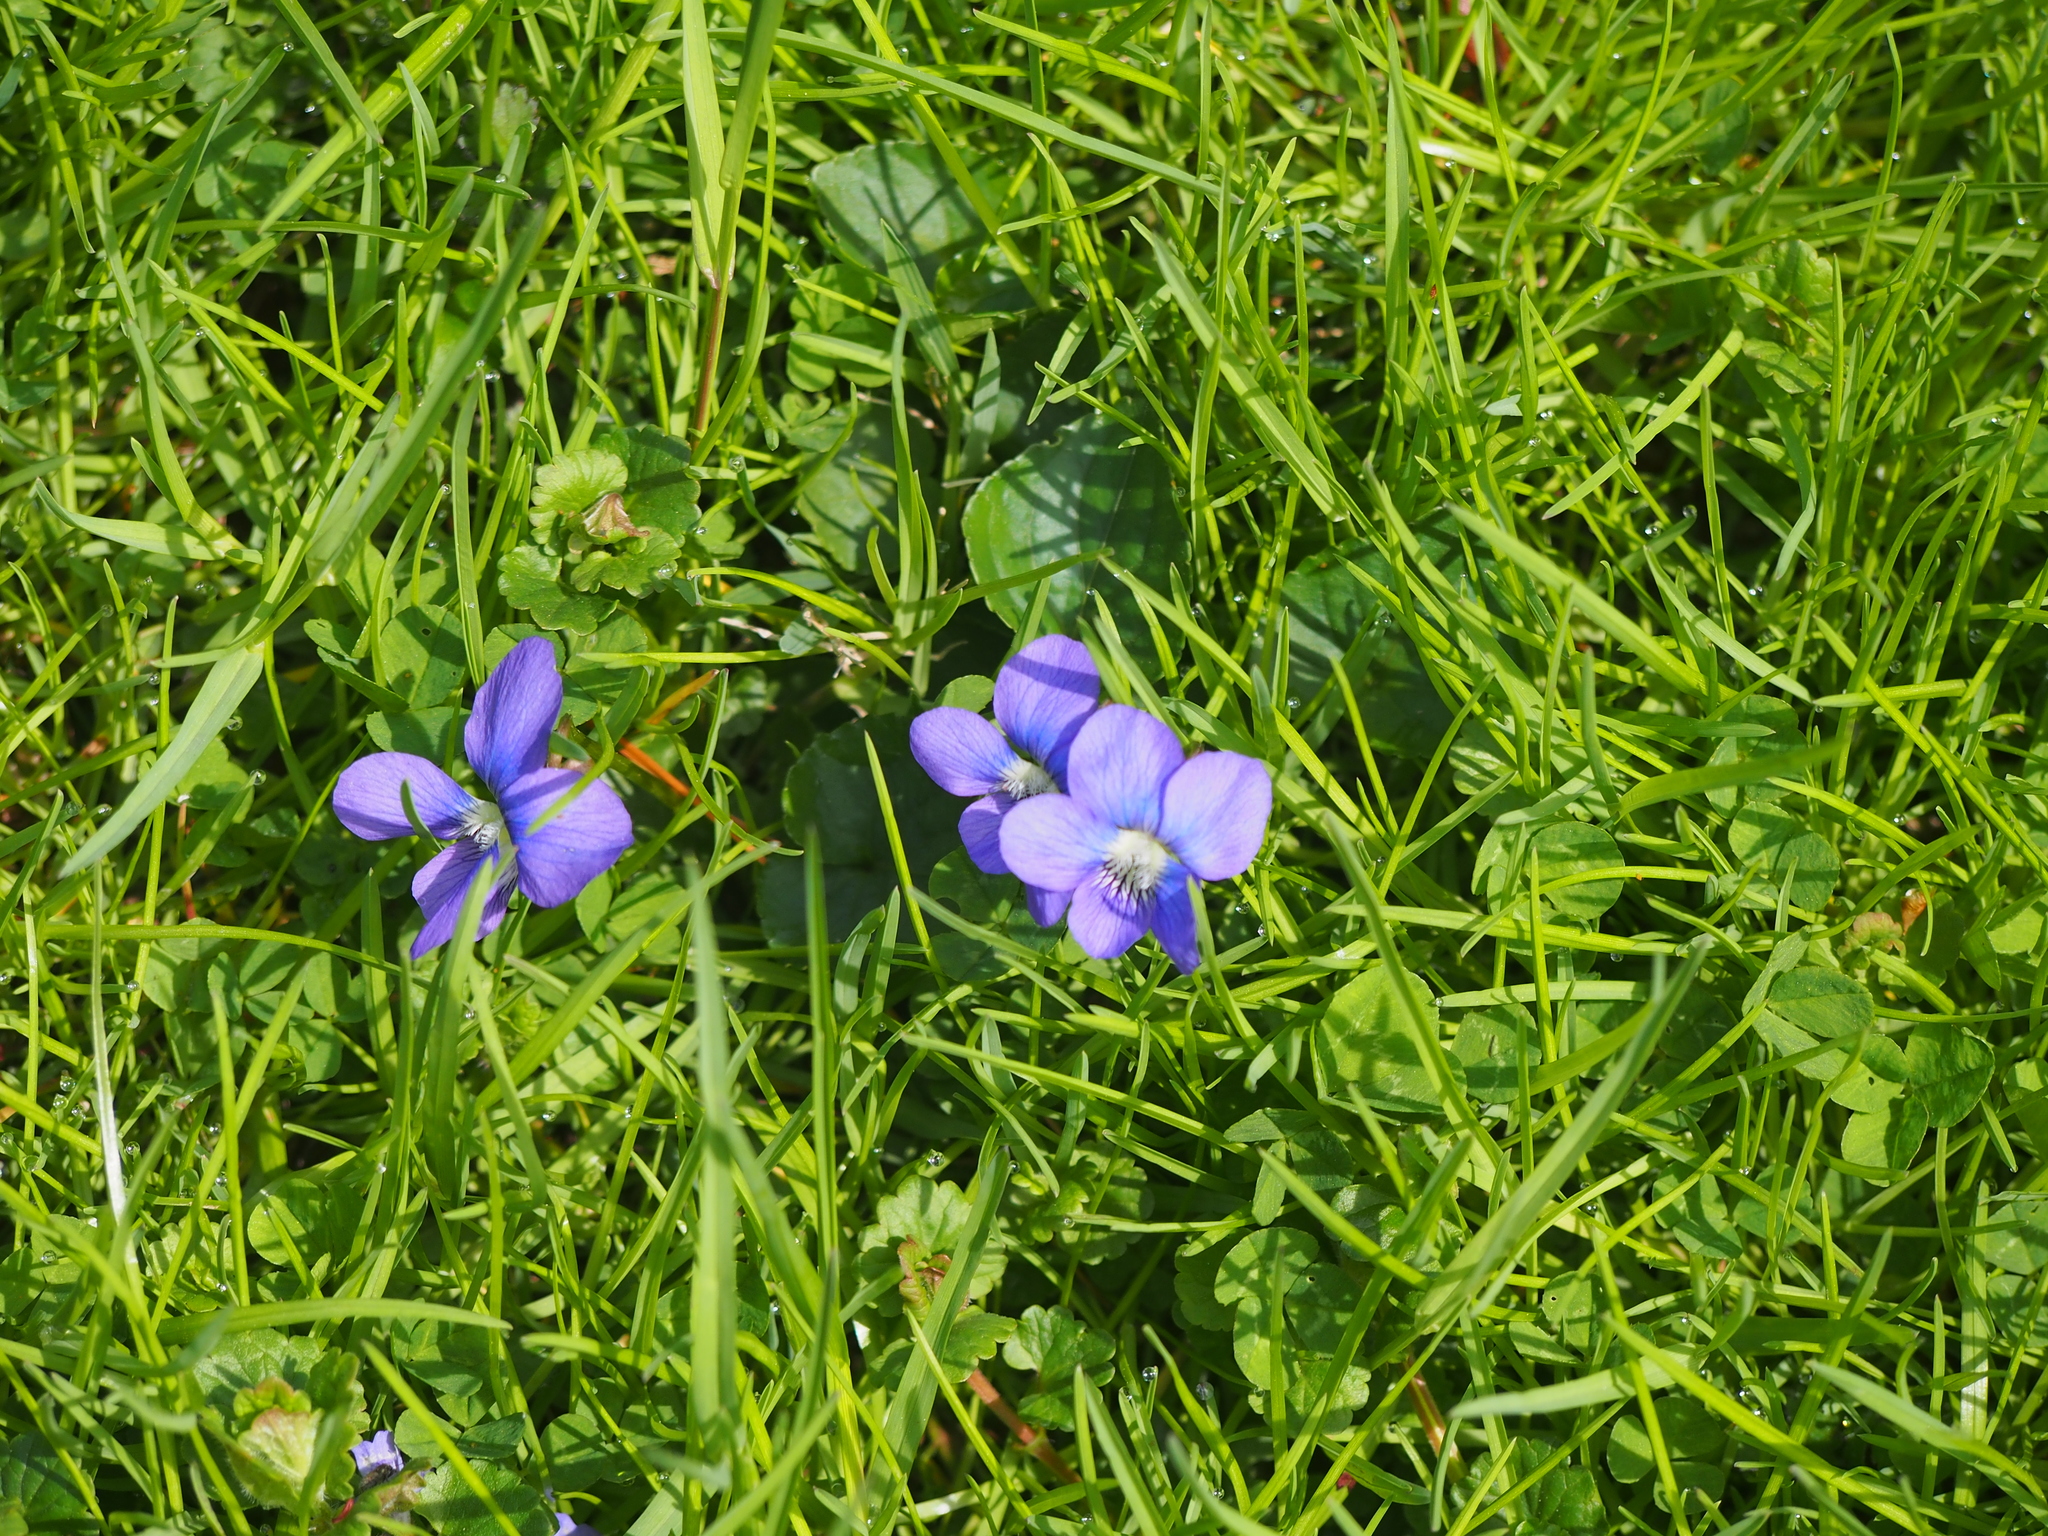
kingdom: Plantae
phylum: Tracheophyta
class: Magnoliopsida
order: Malpighiales
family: Violaceae
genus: Viola
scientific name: Viola sororia
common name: Dooryard violet
